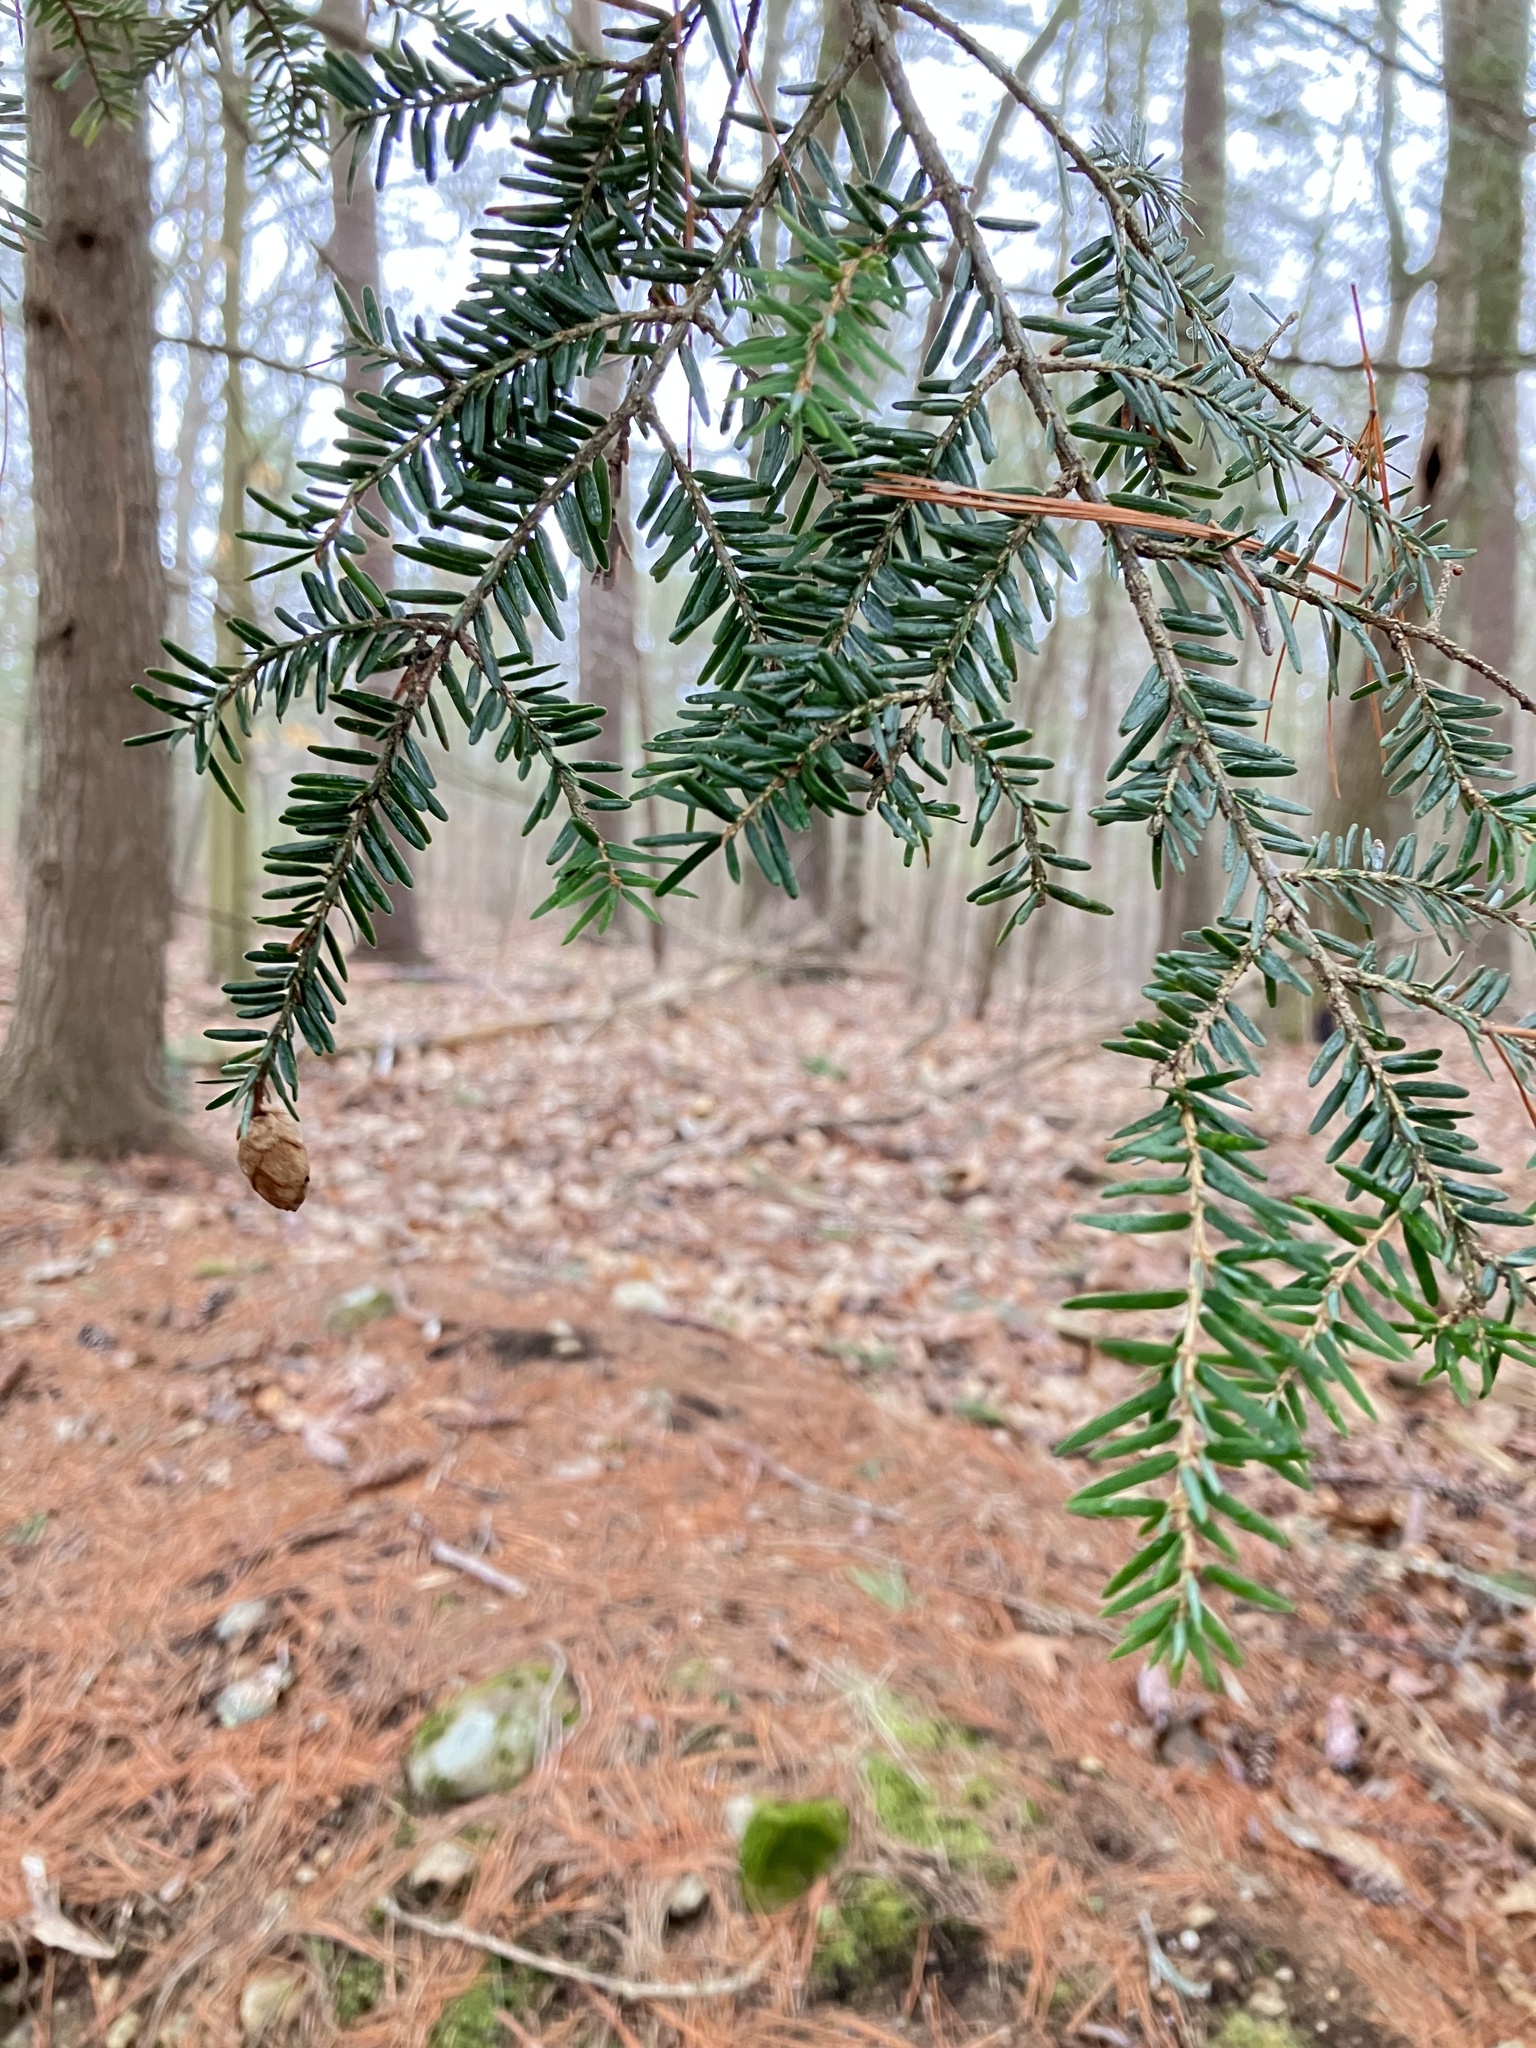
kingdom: Plantae
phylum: Tracheophyta
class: Pinopsida
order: Pinales
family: Pinaceae
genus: Tsuga
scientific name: Tsuga canadensis
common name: Eastern hemlock
